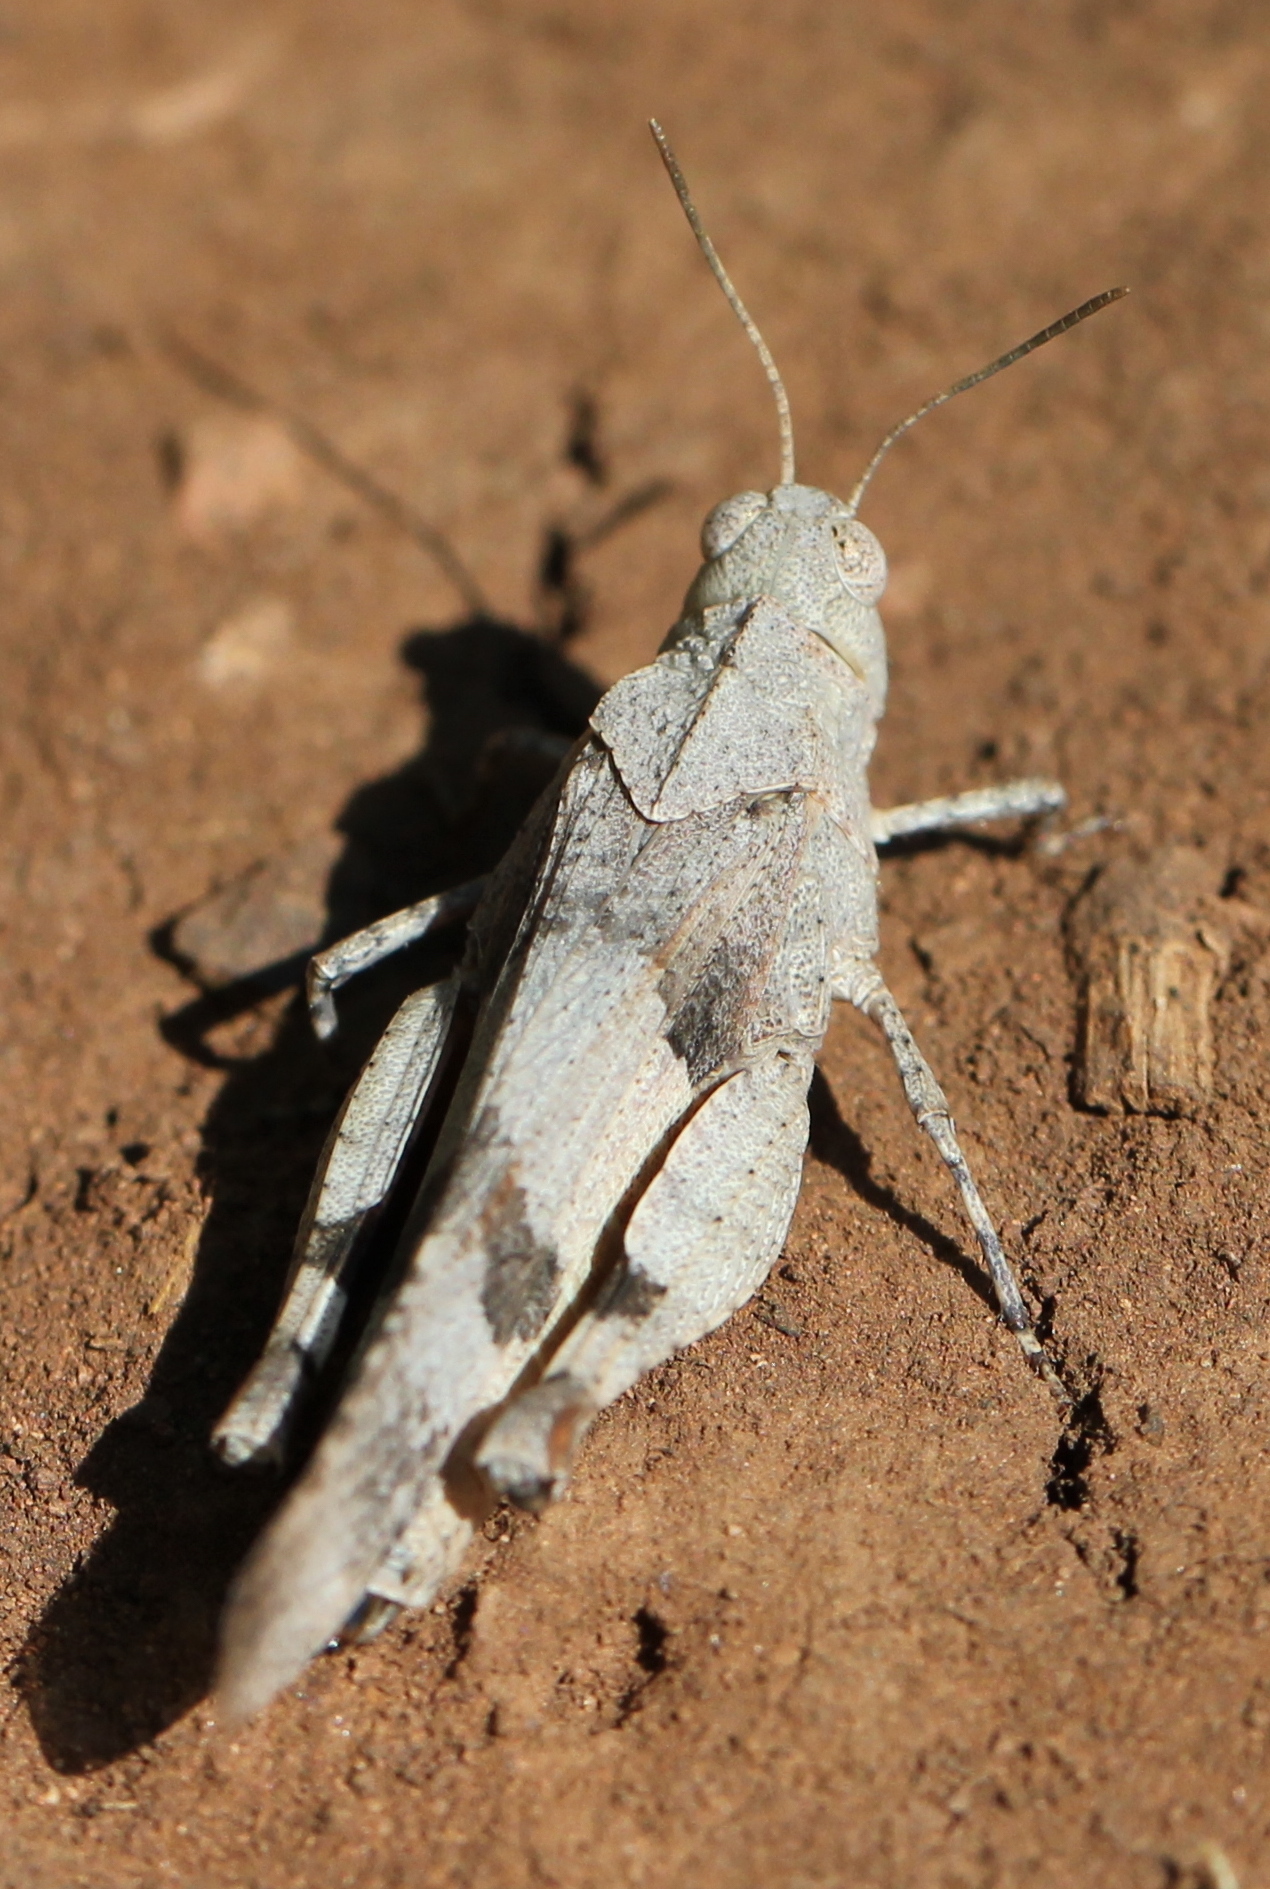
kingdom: Animalia
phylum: Arthropoda
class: Insecta
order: Orthoptera
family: Acrididae
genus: Oedipoda
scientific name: Oedipoda caerulescens
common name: Blue-winged grasshopper
